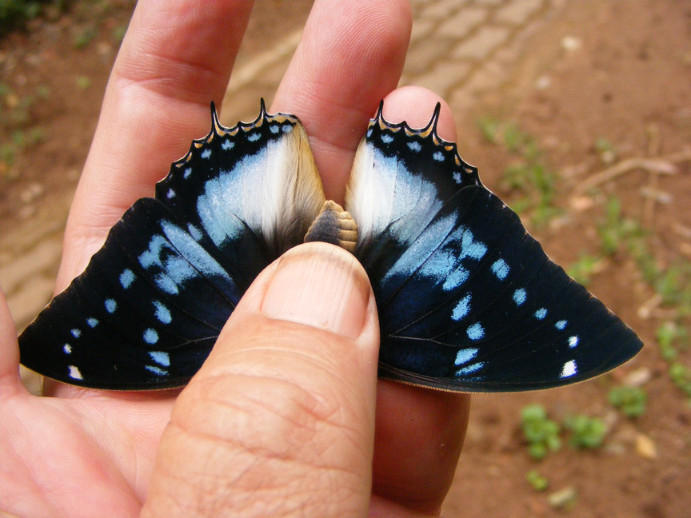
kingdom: Animalia
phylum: Arthropoda
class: Insecta
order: Lepidoptera
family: Nymphalidae
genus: Charaxes
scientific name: Charaxes xiphares
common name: Forest-king charaxes
